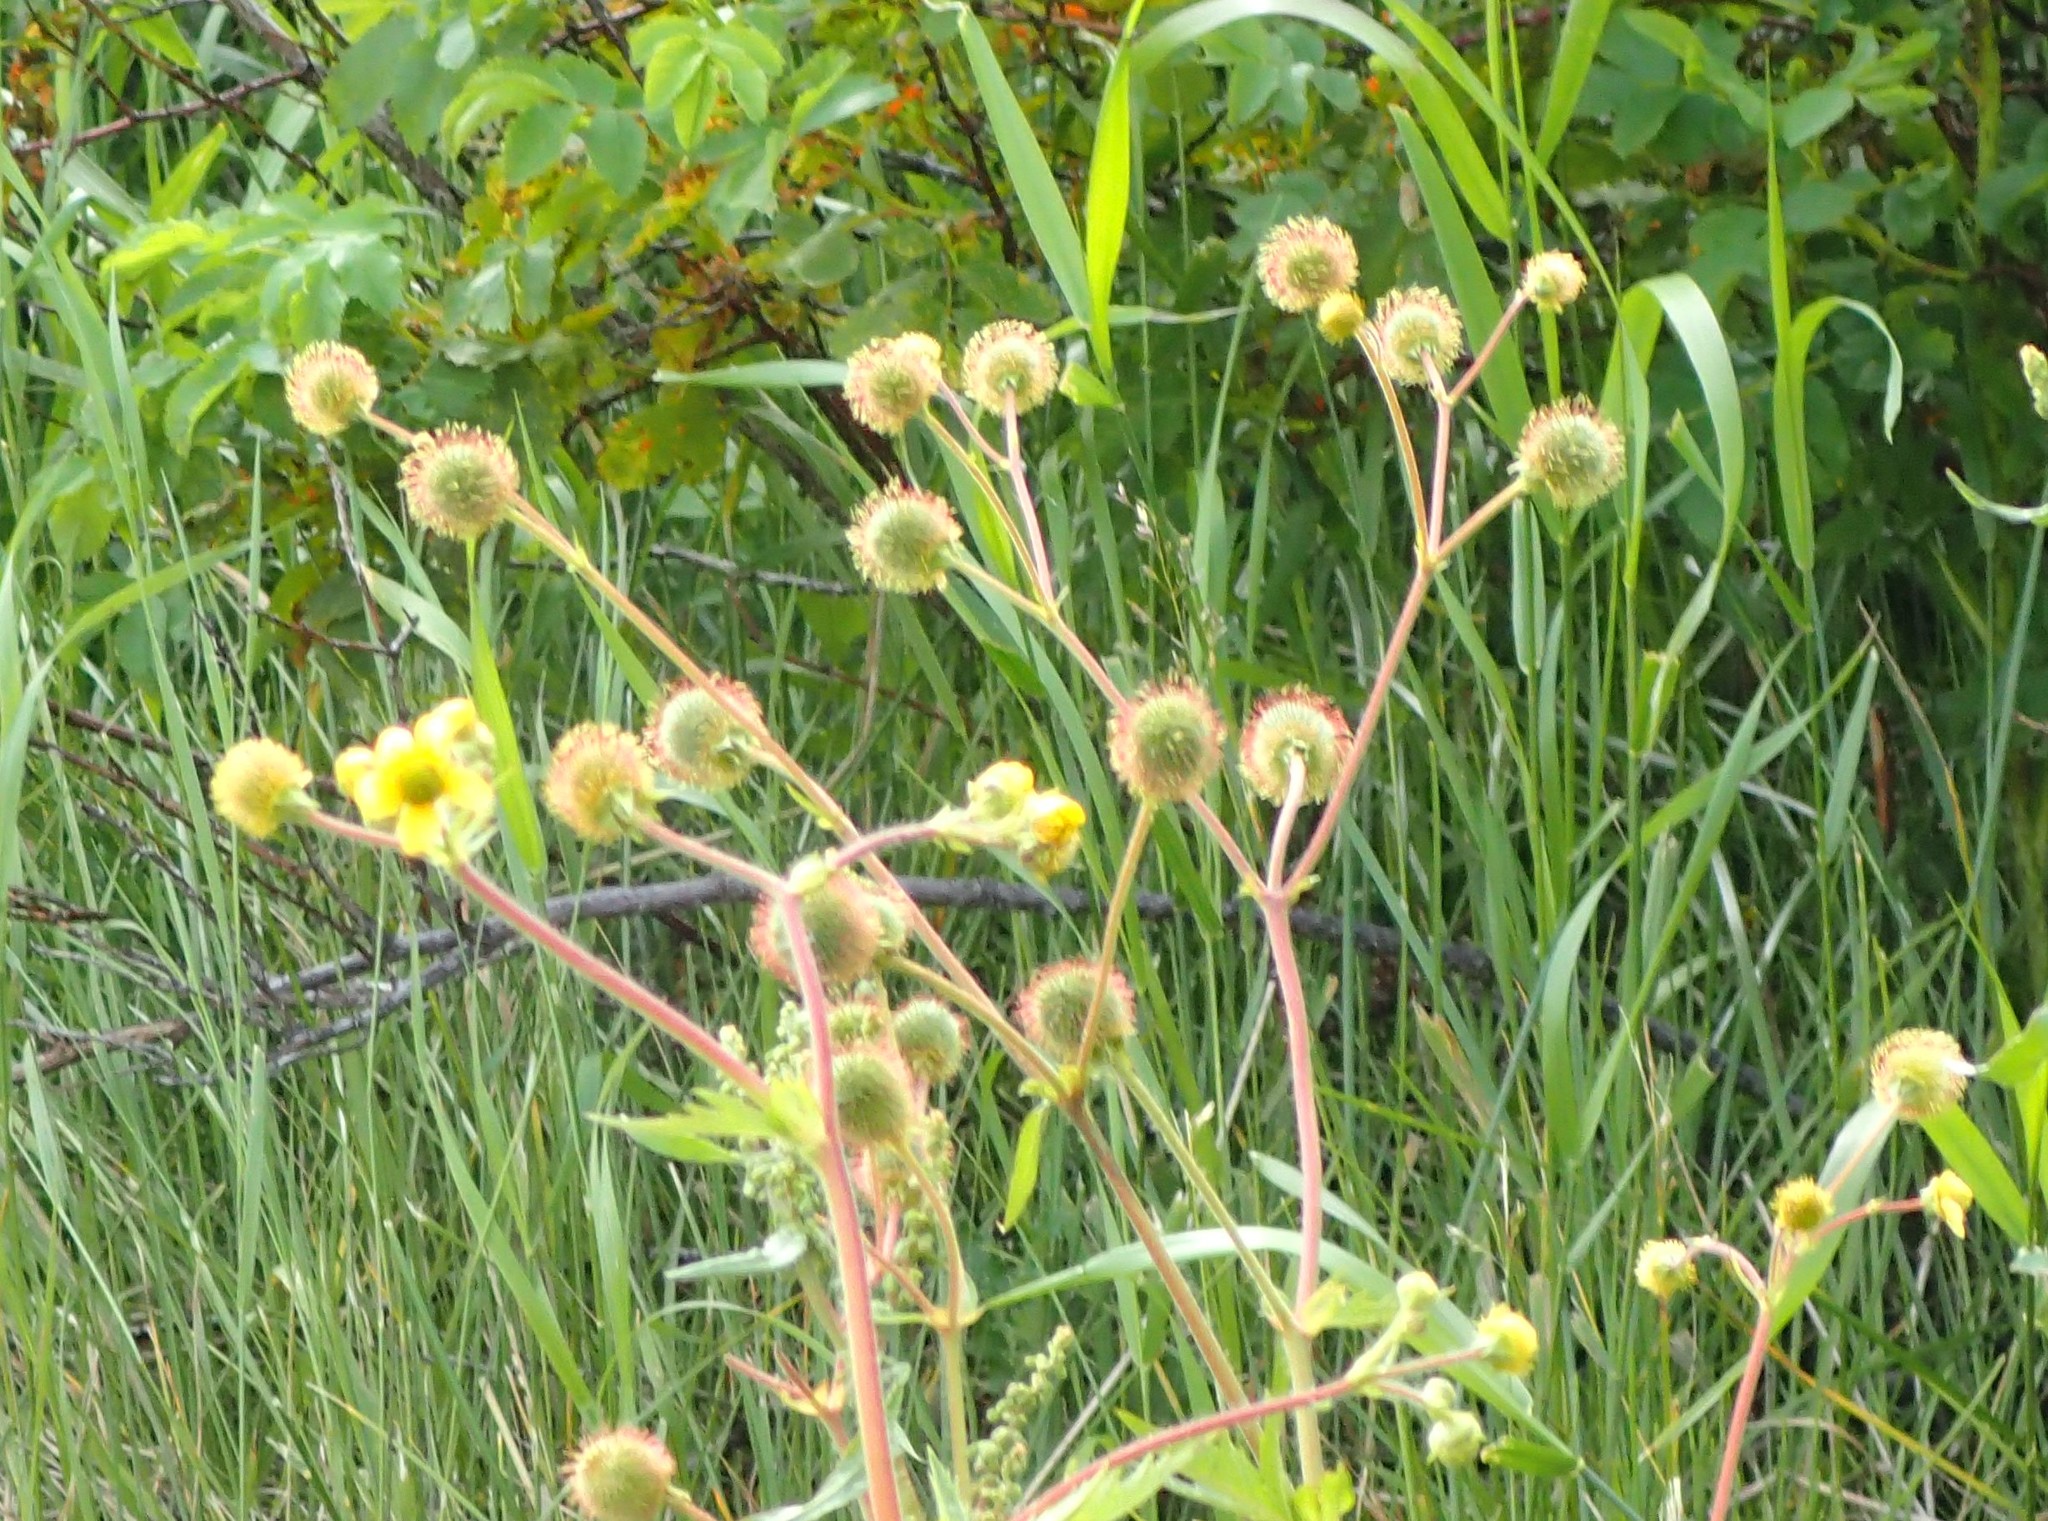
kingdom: Plantae
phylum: Tracheophyta
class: Magnoliopsida
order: Rosales
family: Rosaceae
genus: Geum
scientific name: Geum aleppicum
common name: Yellow avens
